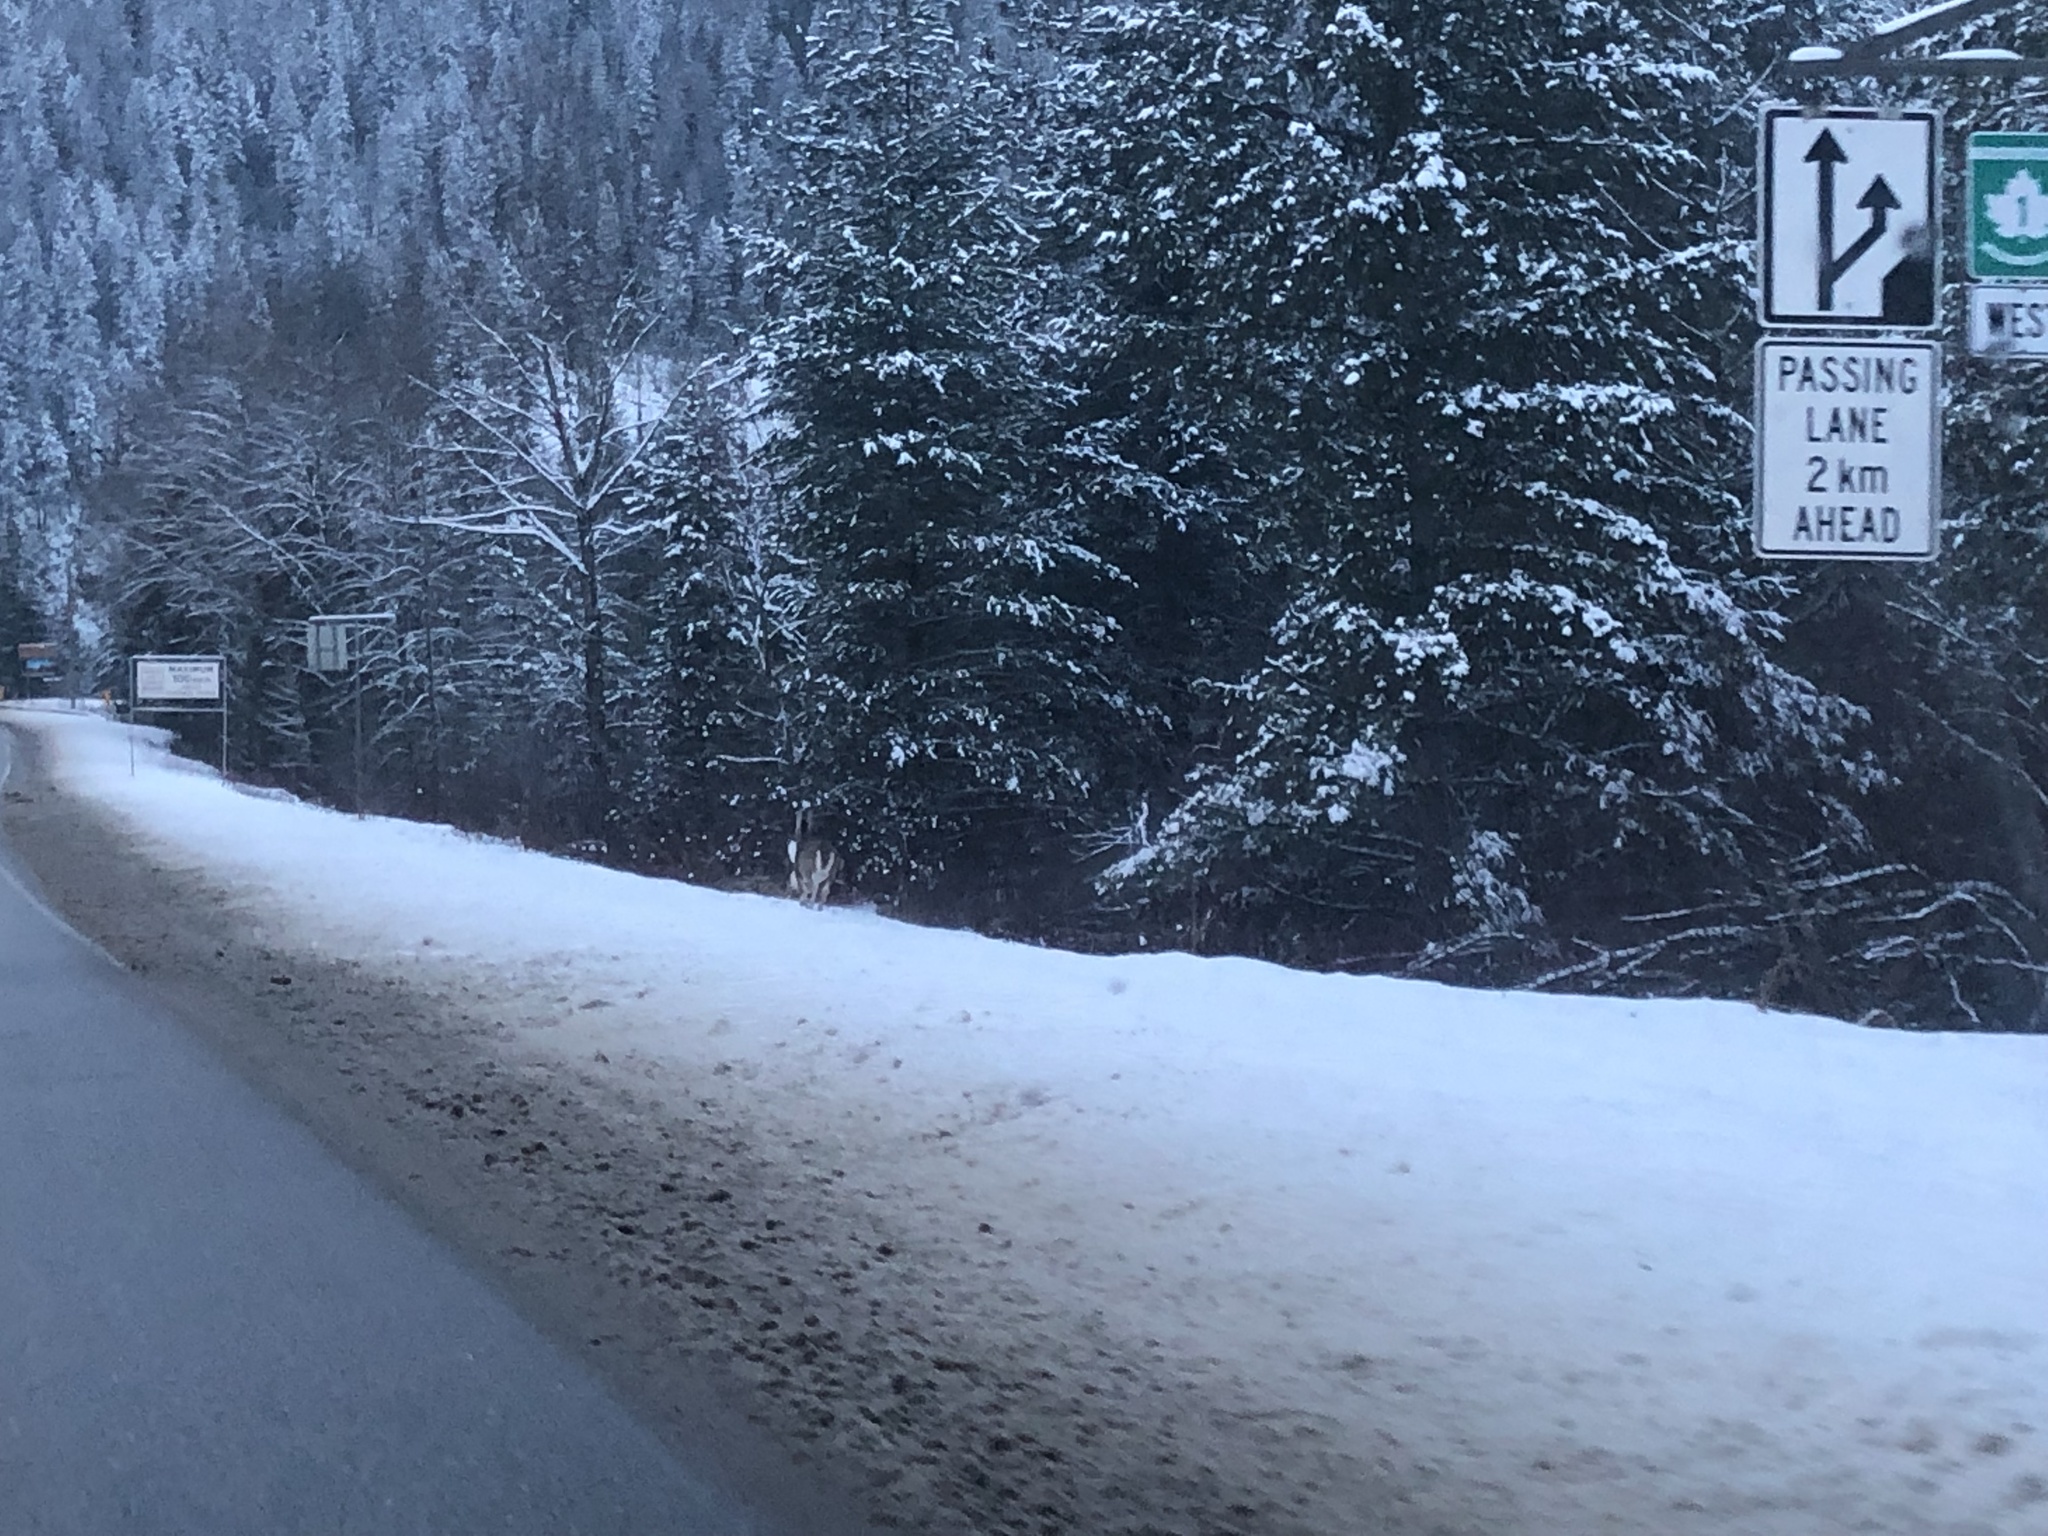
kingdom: Animalia
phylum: Chordata
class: Mammalia
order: Artiodactyla
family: Cervidae
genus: Odocoileus
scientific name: Odocoileus virginianus
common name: White-tailed deer
